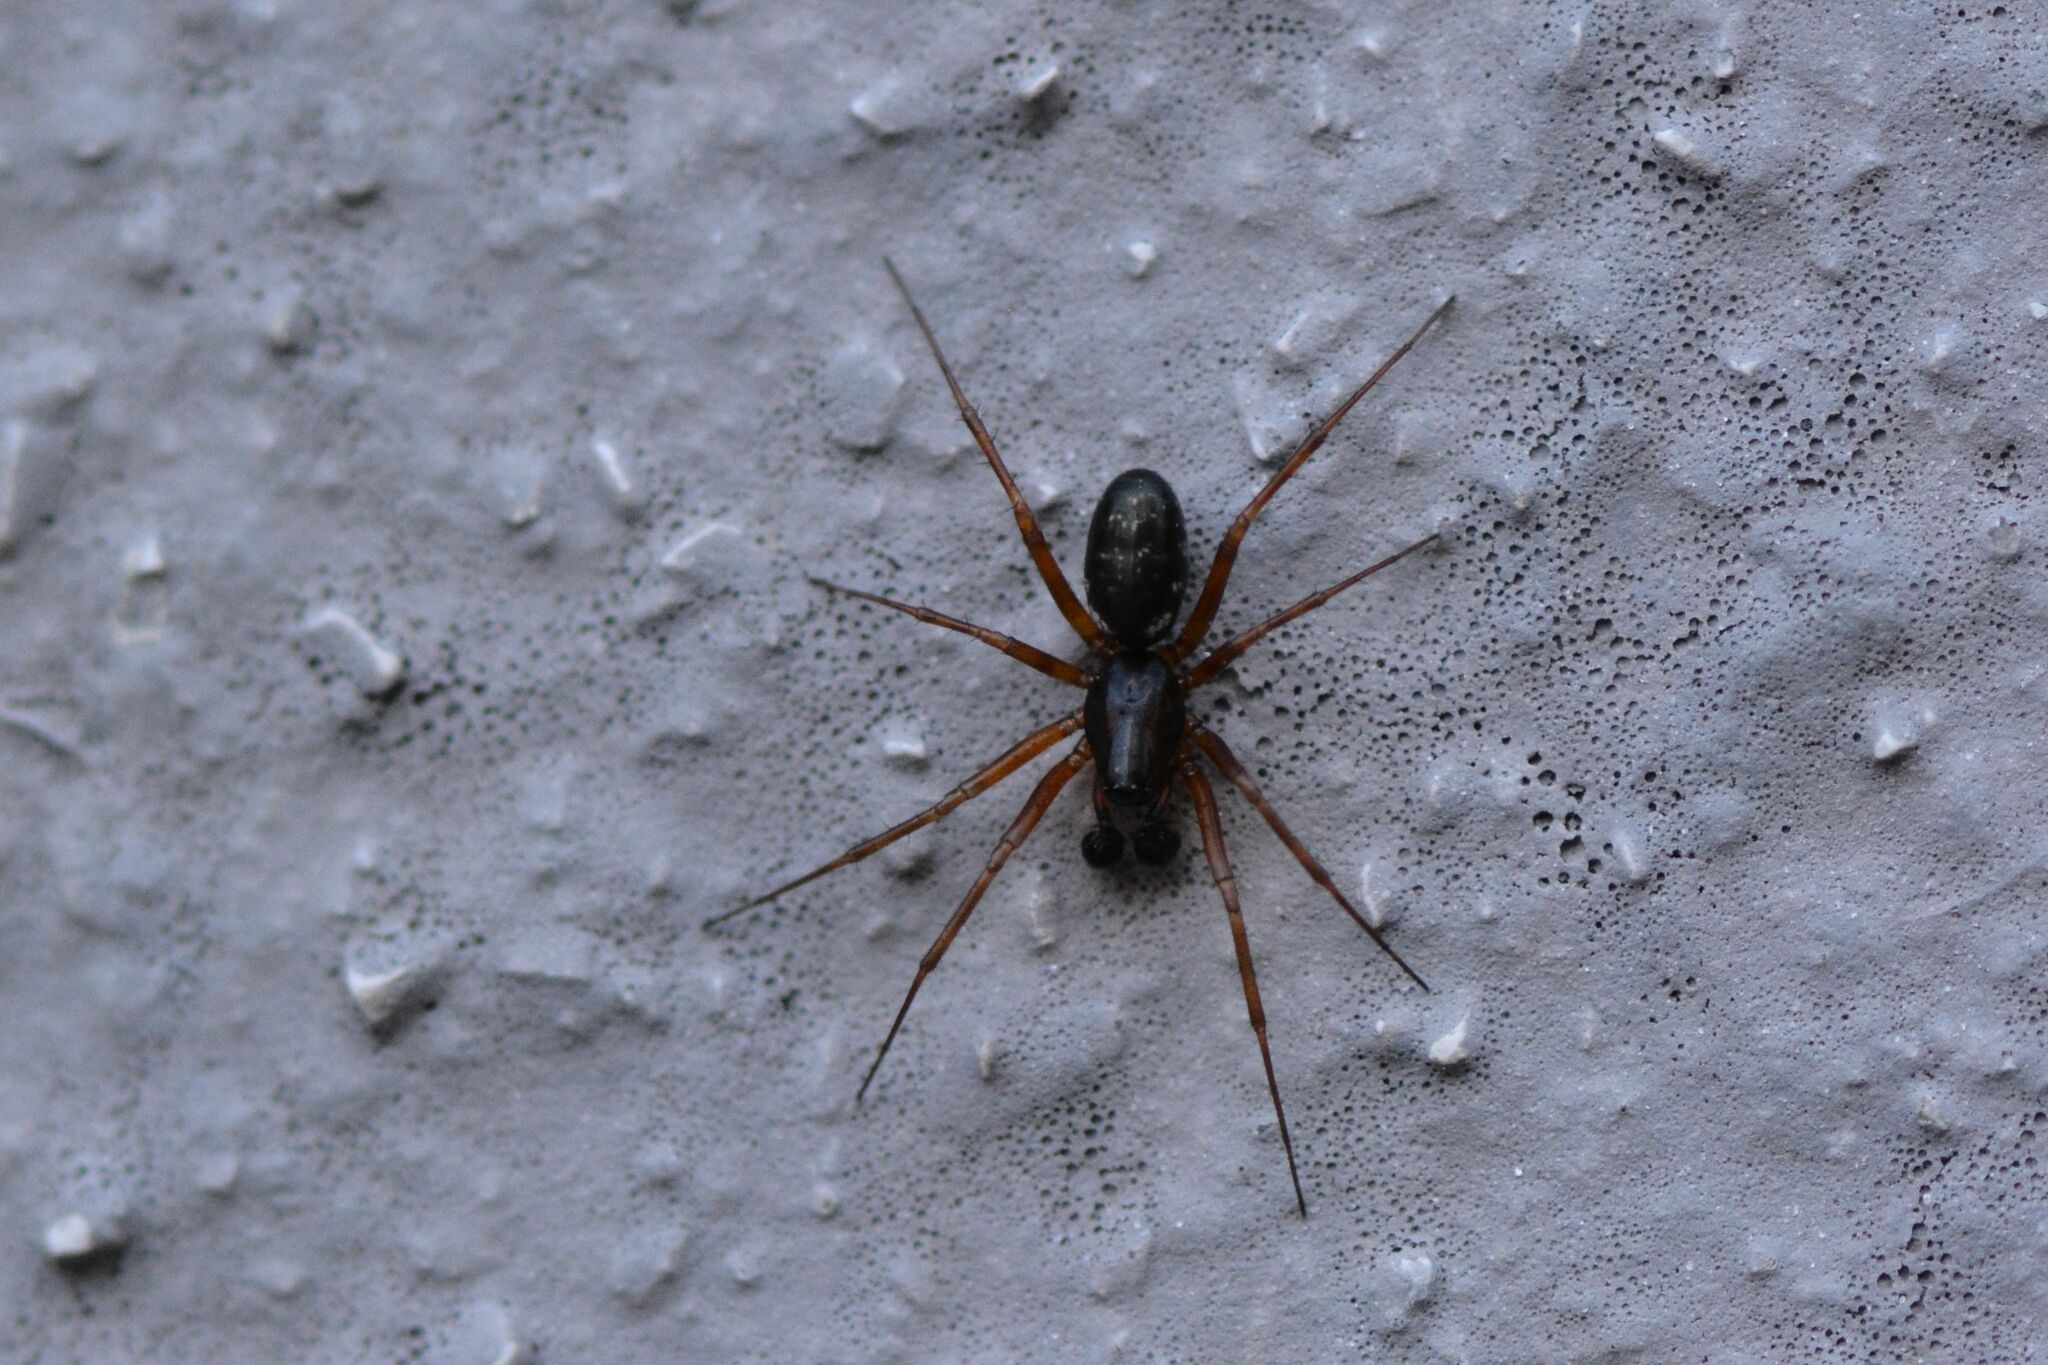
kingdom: Animalia
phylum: Arthropoda
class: Arachnida
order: Araneae
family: Linyphiidae
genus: Neriene
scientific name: Neriene clathrata
